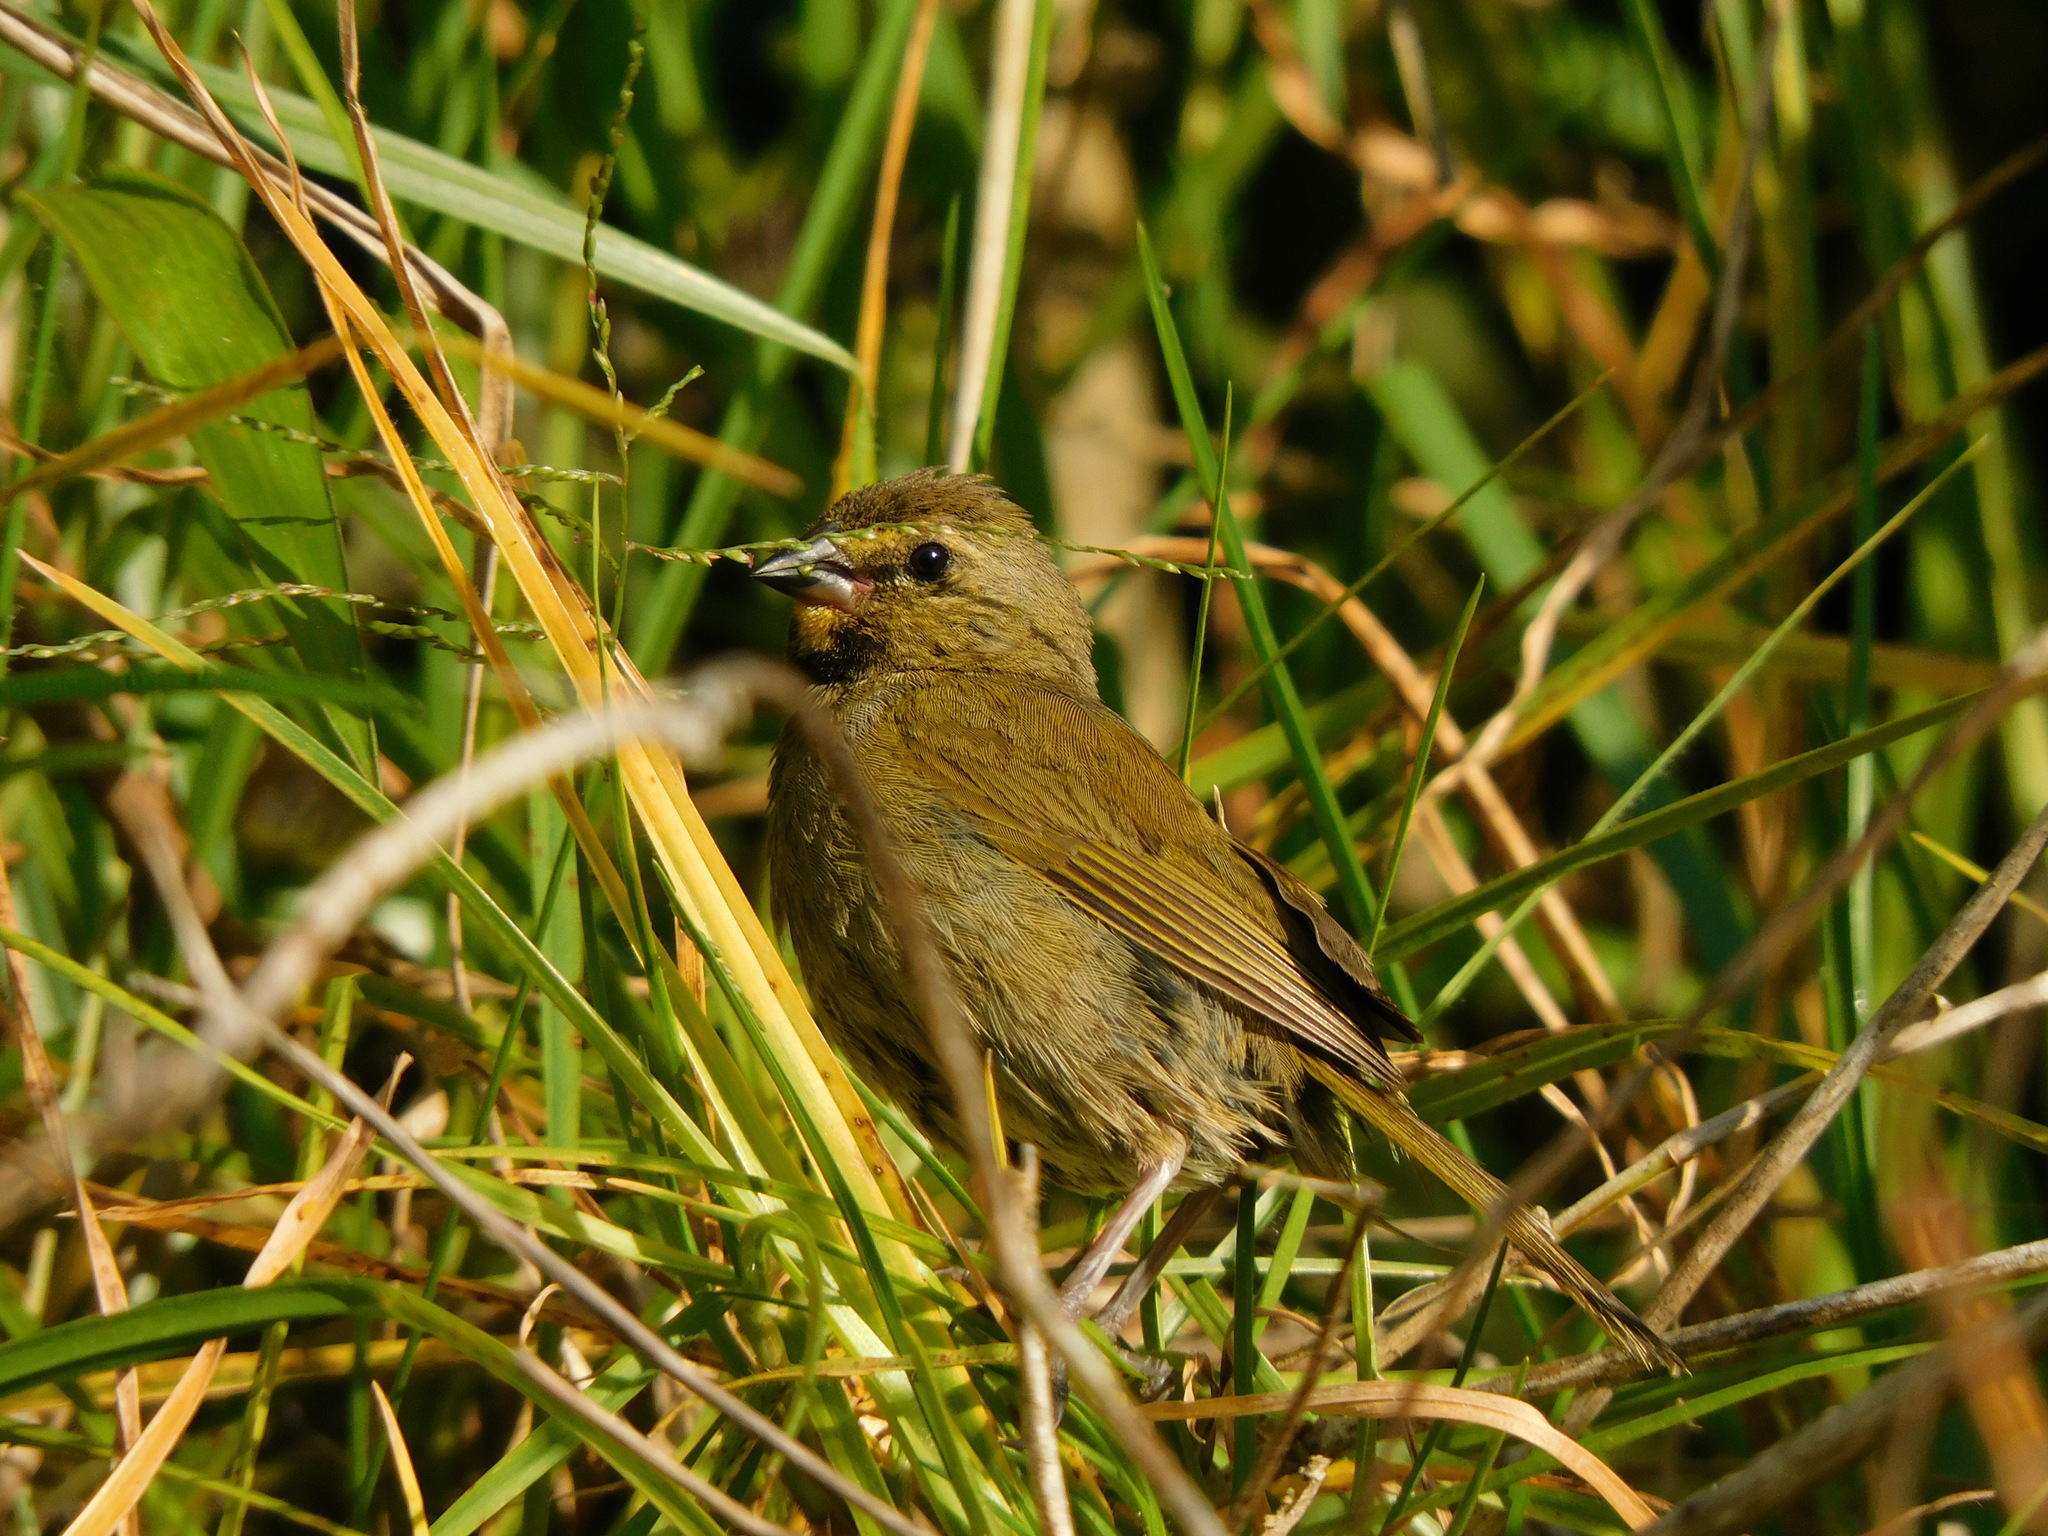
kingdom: Animalia
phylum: Chordata
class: Aves
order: Passeriformes
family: Thraupidae
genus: Tiaris
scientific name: Tiaris olivaceus
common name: Yellow-faced grassquit
